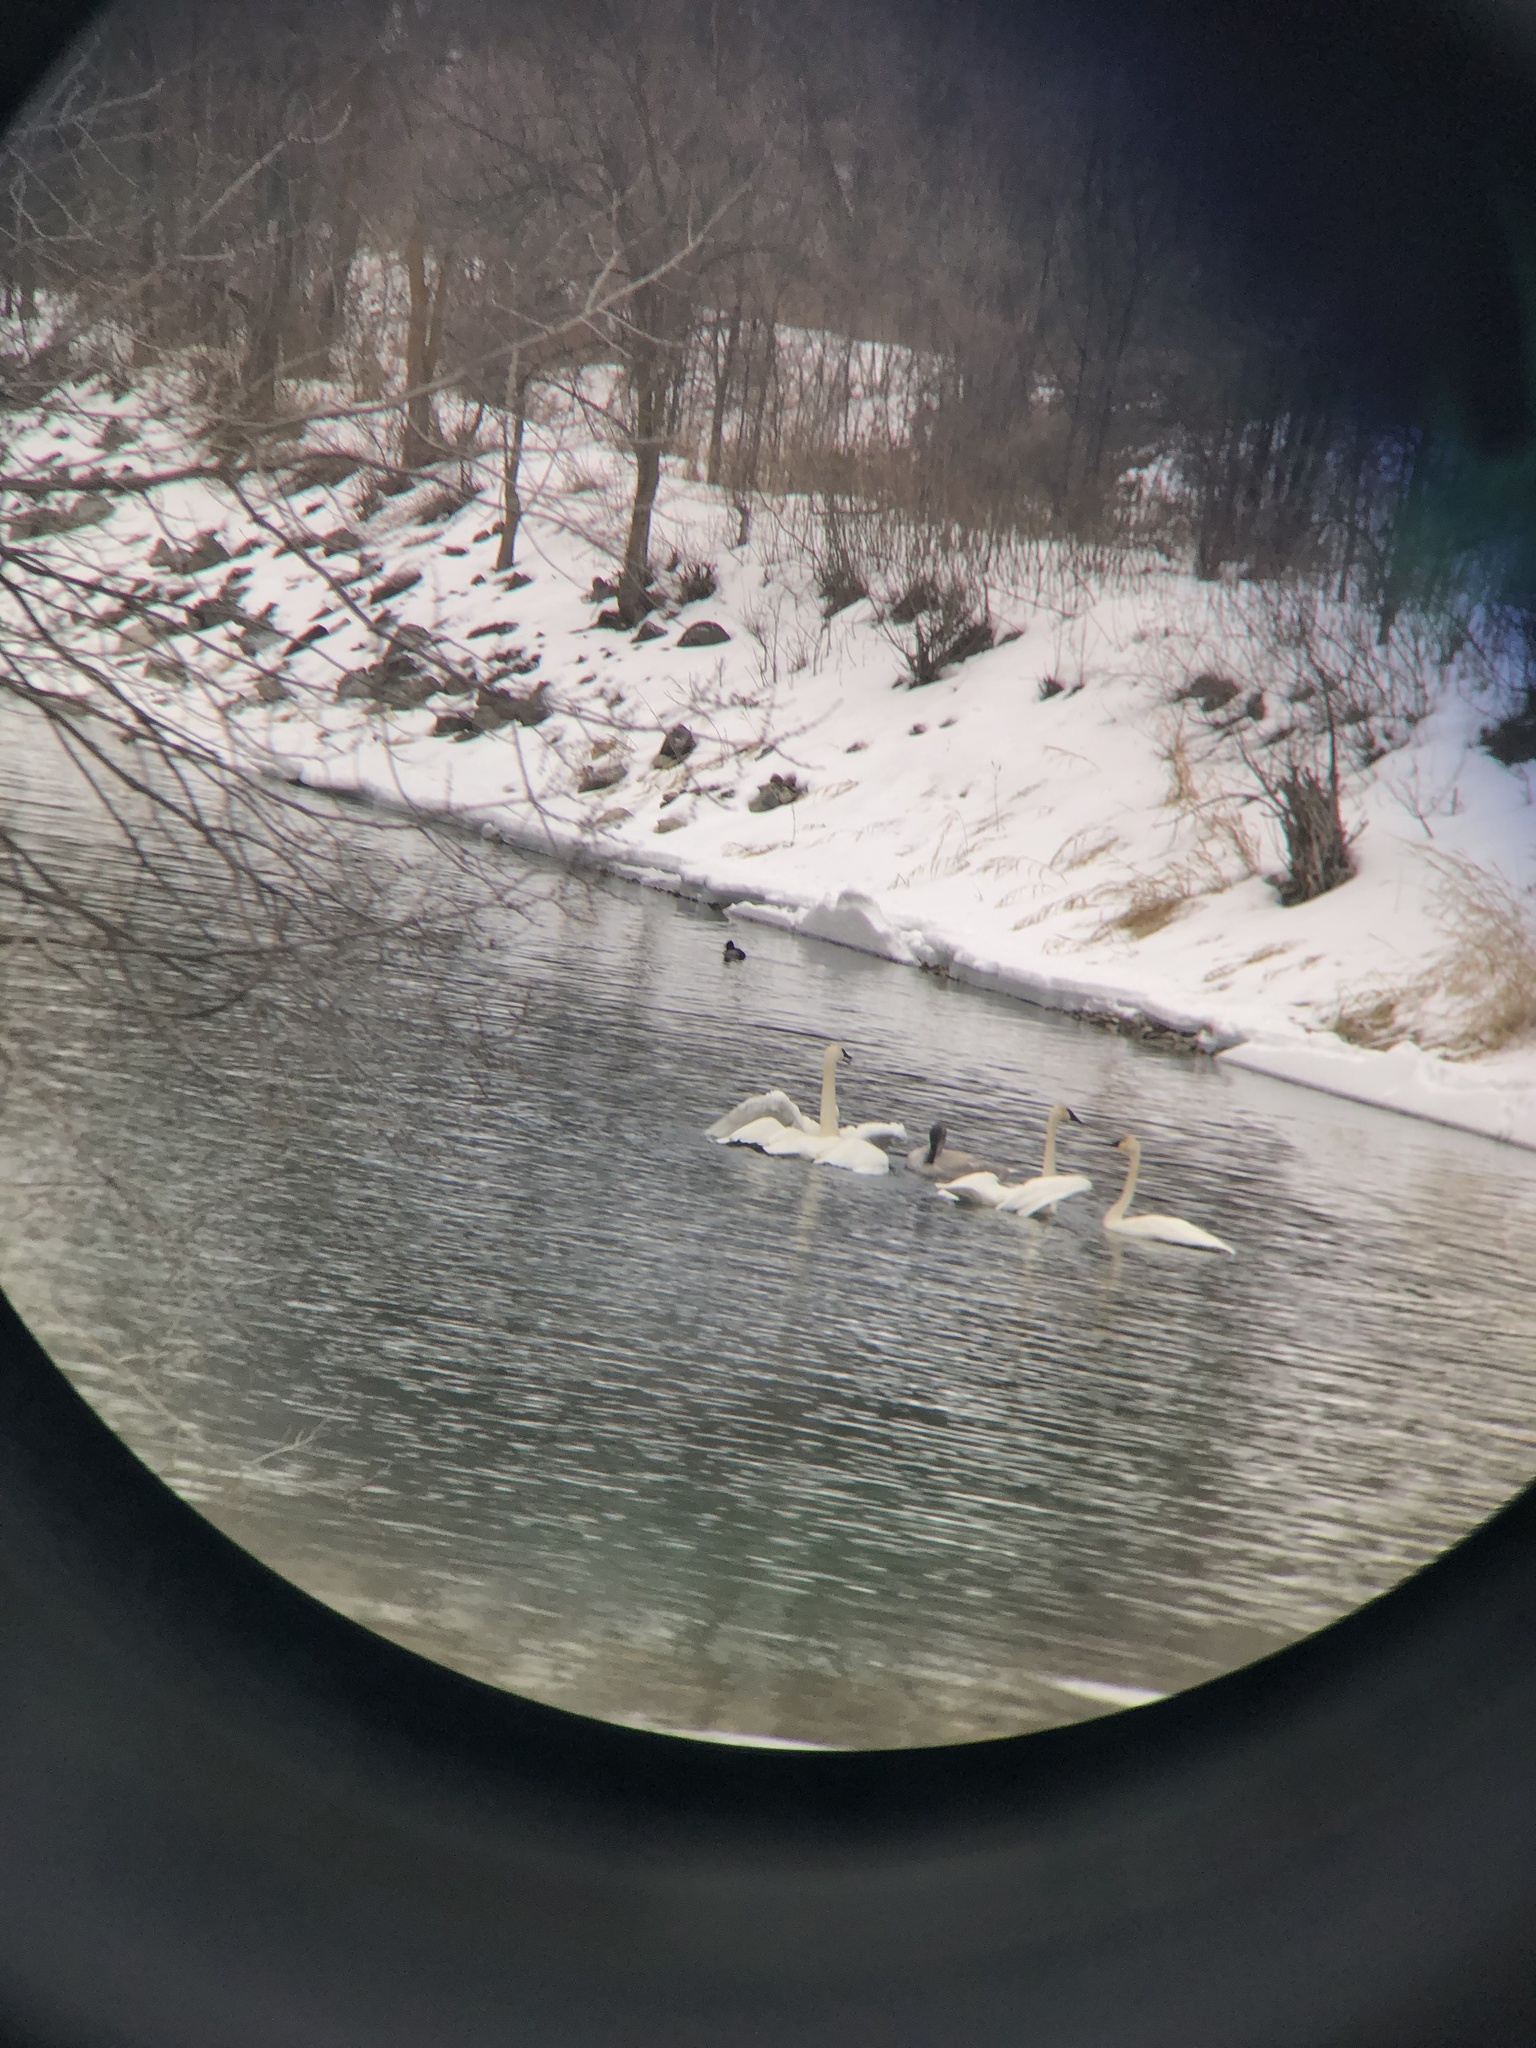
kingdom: Animalia
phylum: Chordata
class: Aves
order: Anseriformes
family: Anatidae
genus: Cygnus
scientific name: Cygnus buccinator
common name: Trumpeter swan
